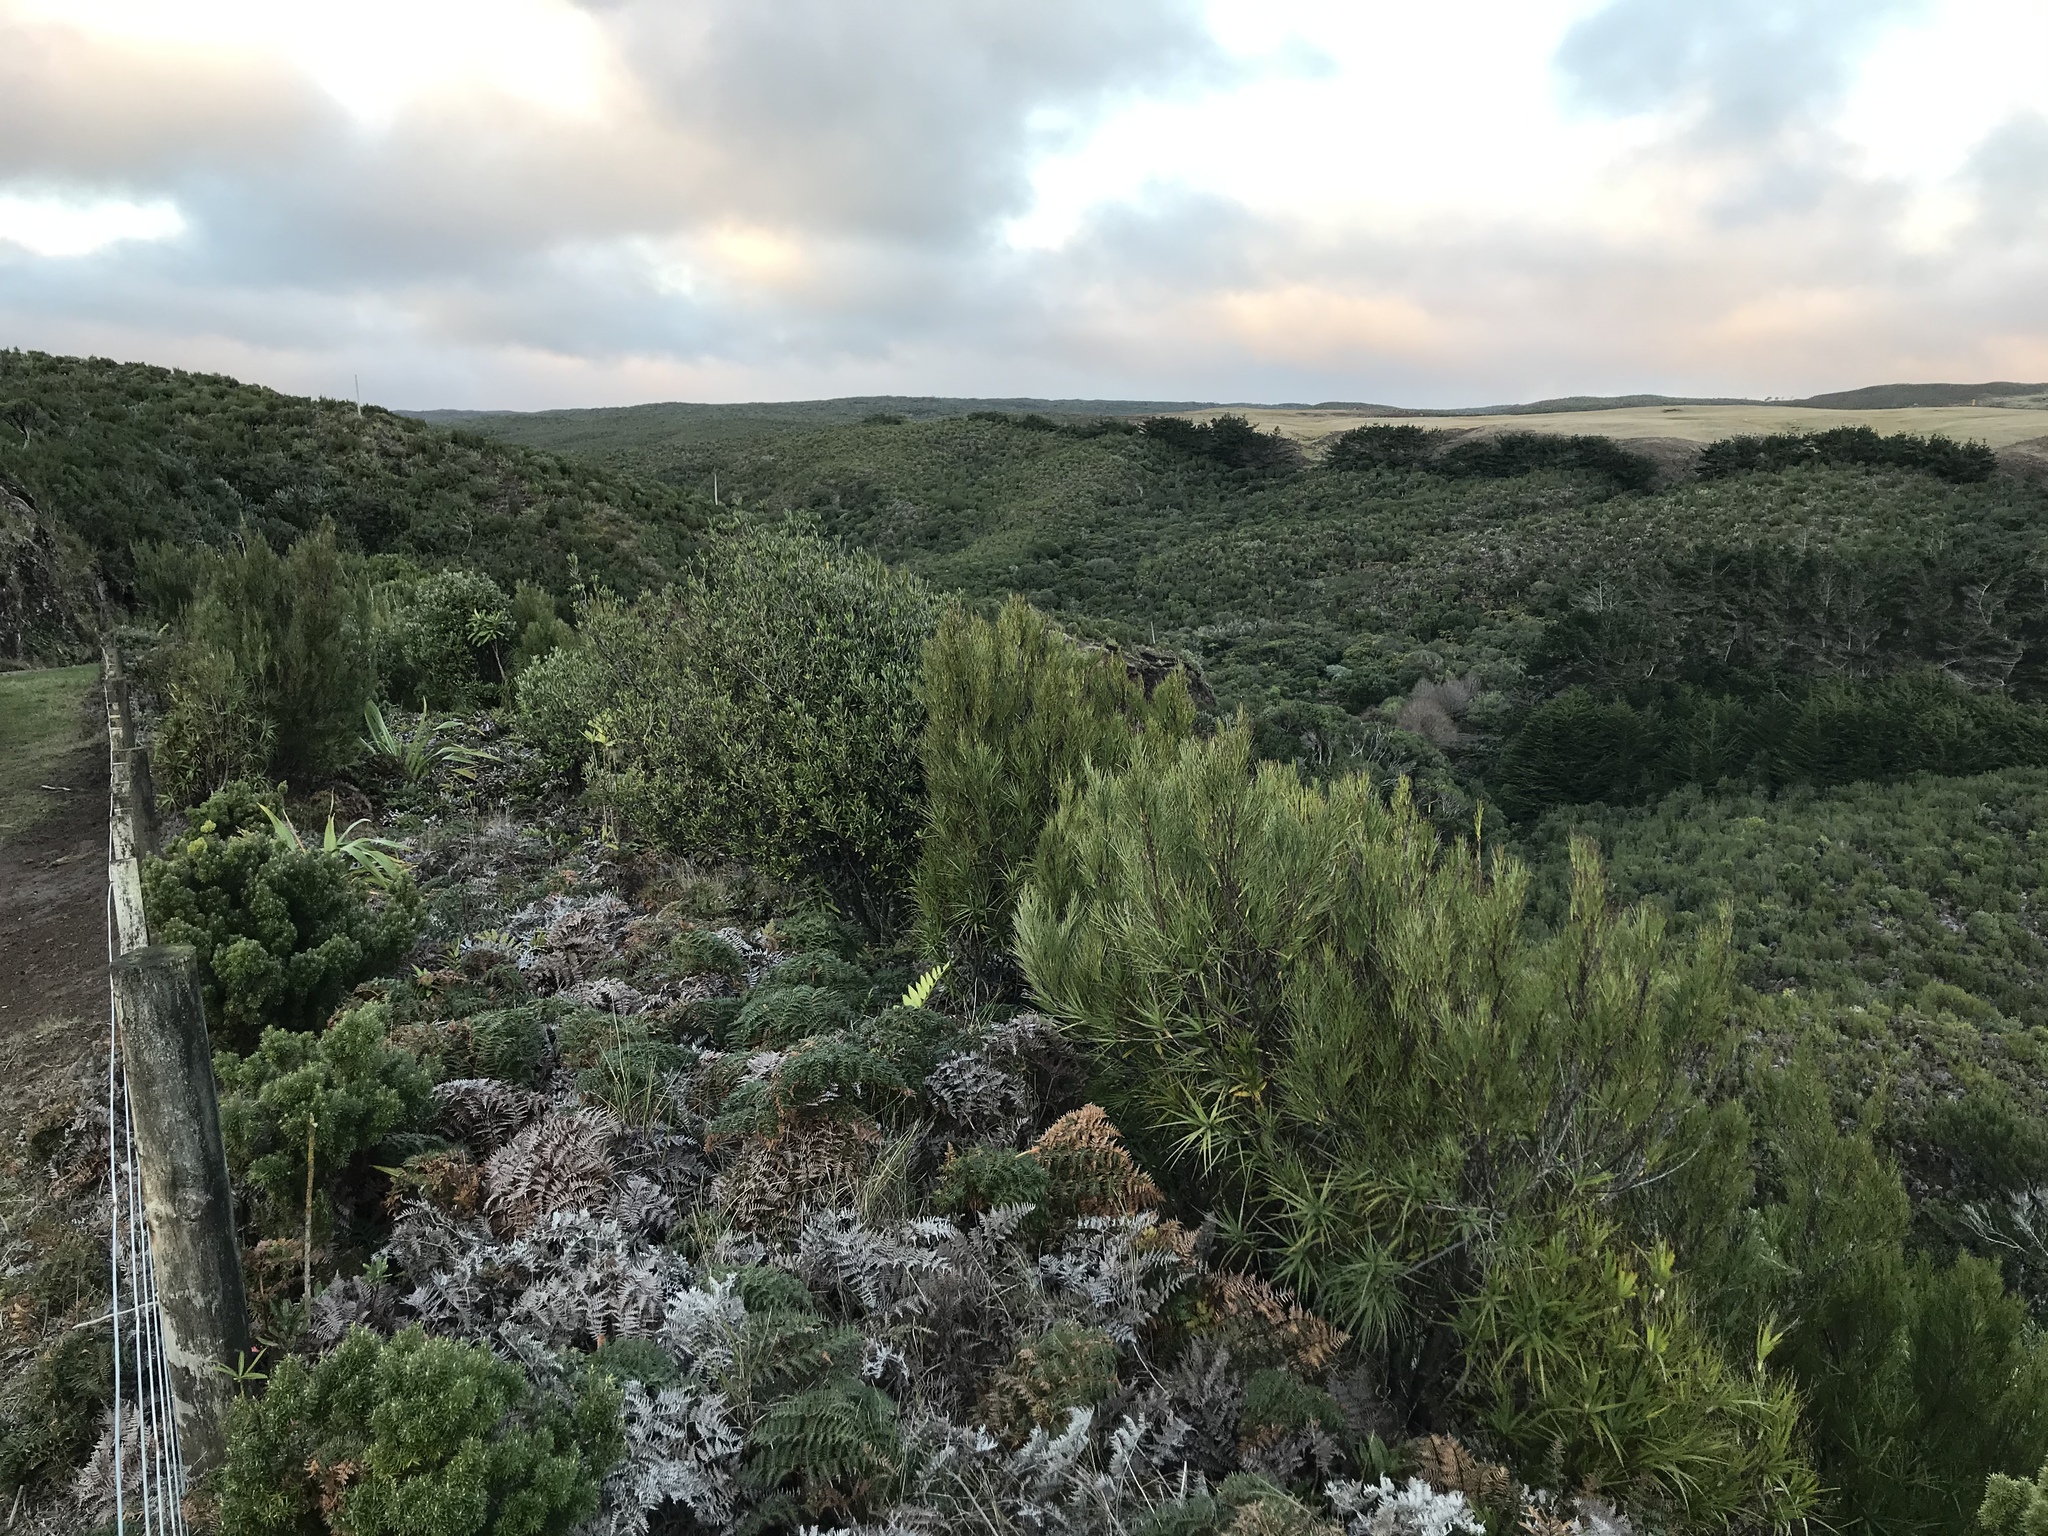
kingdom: Plantae
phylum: Tracheophyta
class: Magnoliopsida
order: Ericales
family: Ericaceae
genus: Dracophyllum
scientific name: Dracophyllum arboreum
